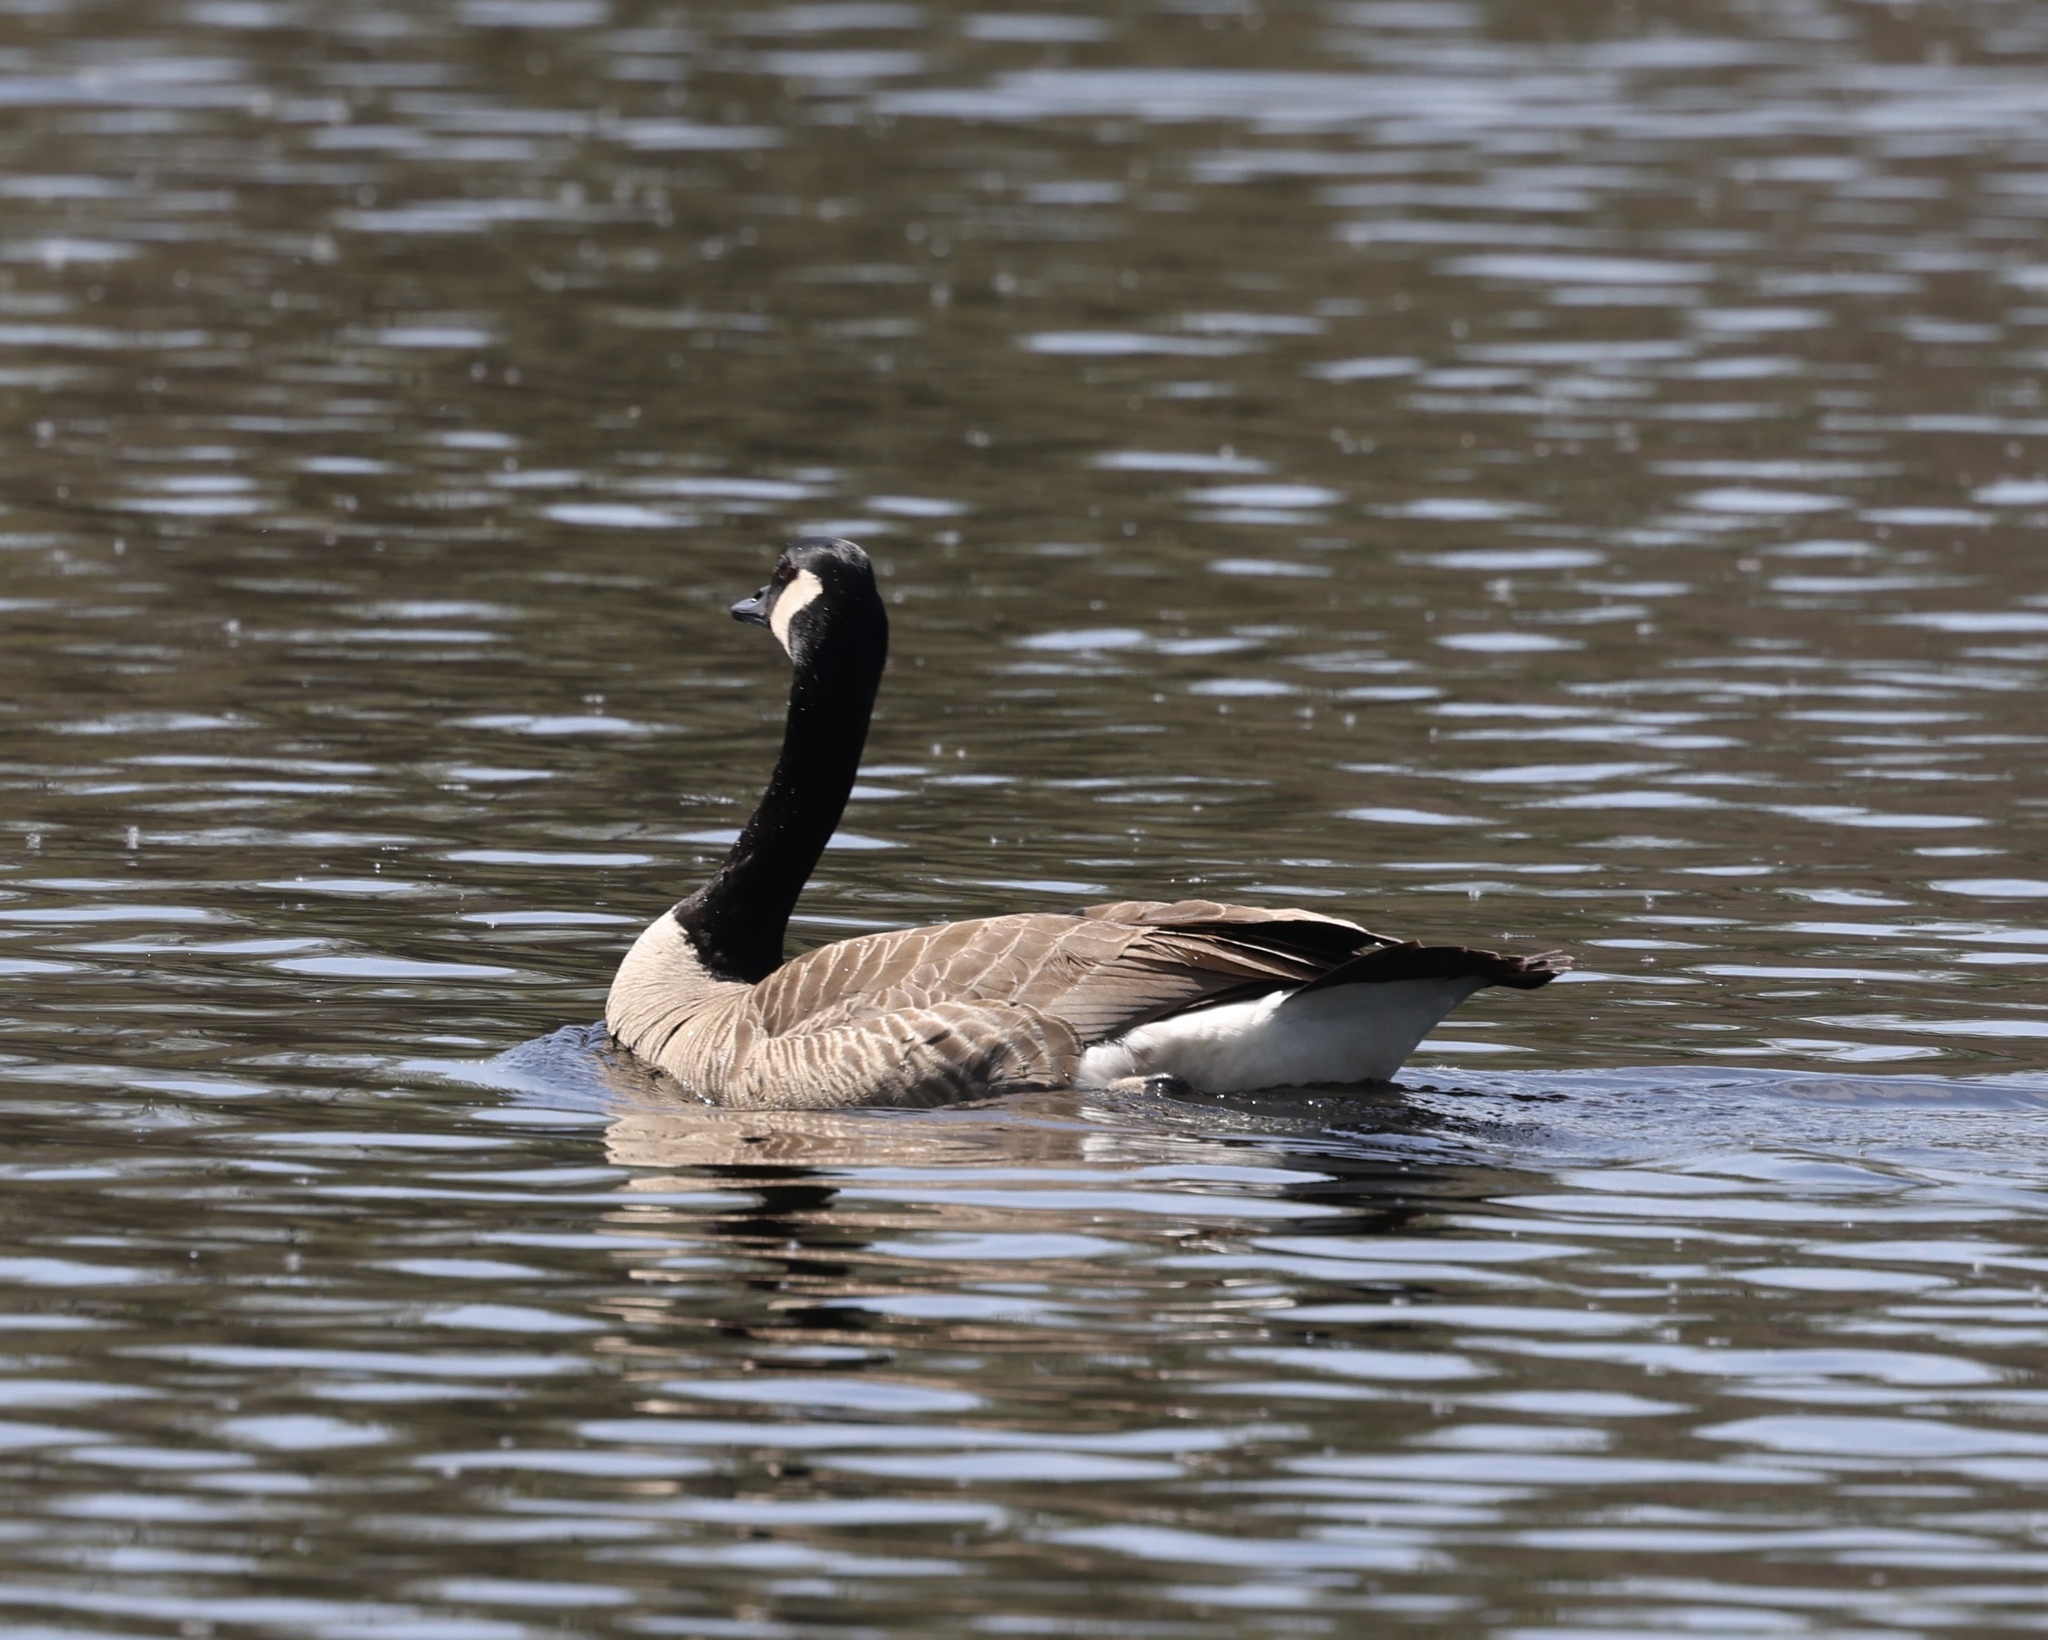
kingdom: Animalia
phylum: Chordata
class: Aves
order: Anseriformes
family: Anatidae
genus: Branta
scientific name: Branta canadensis
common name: Canada goose
